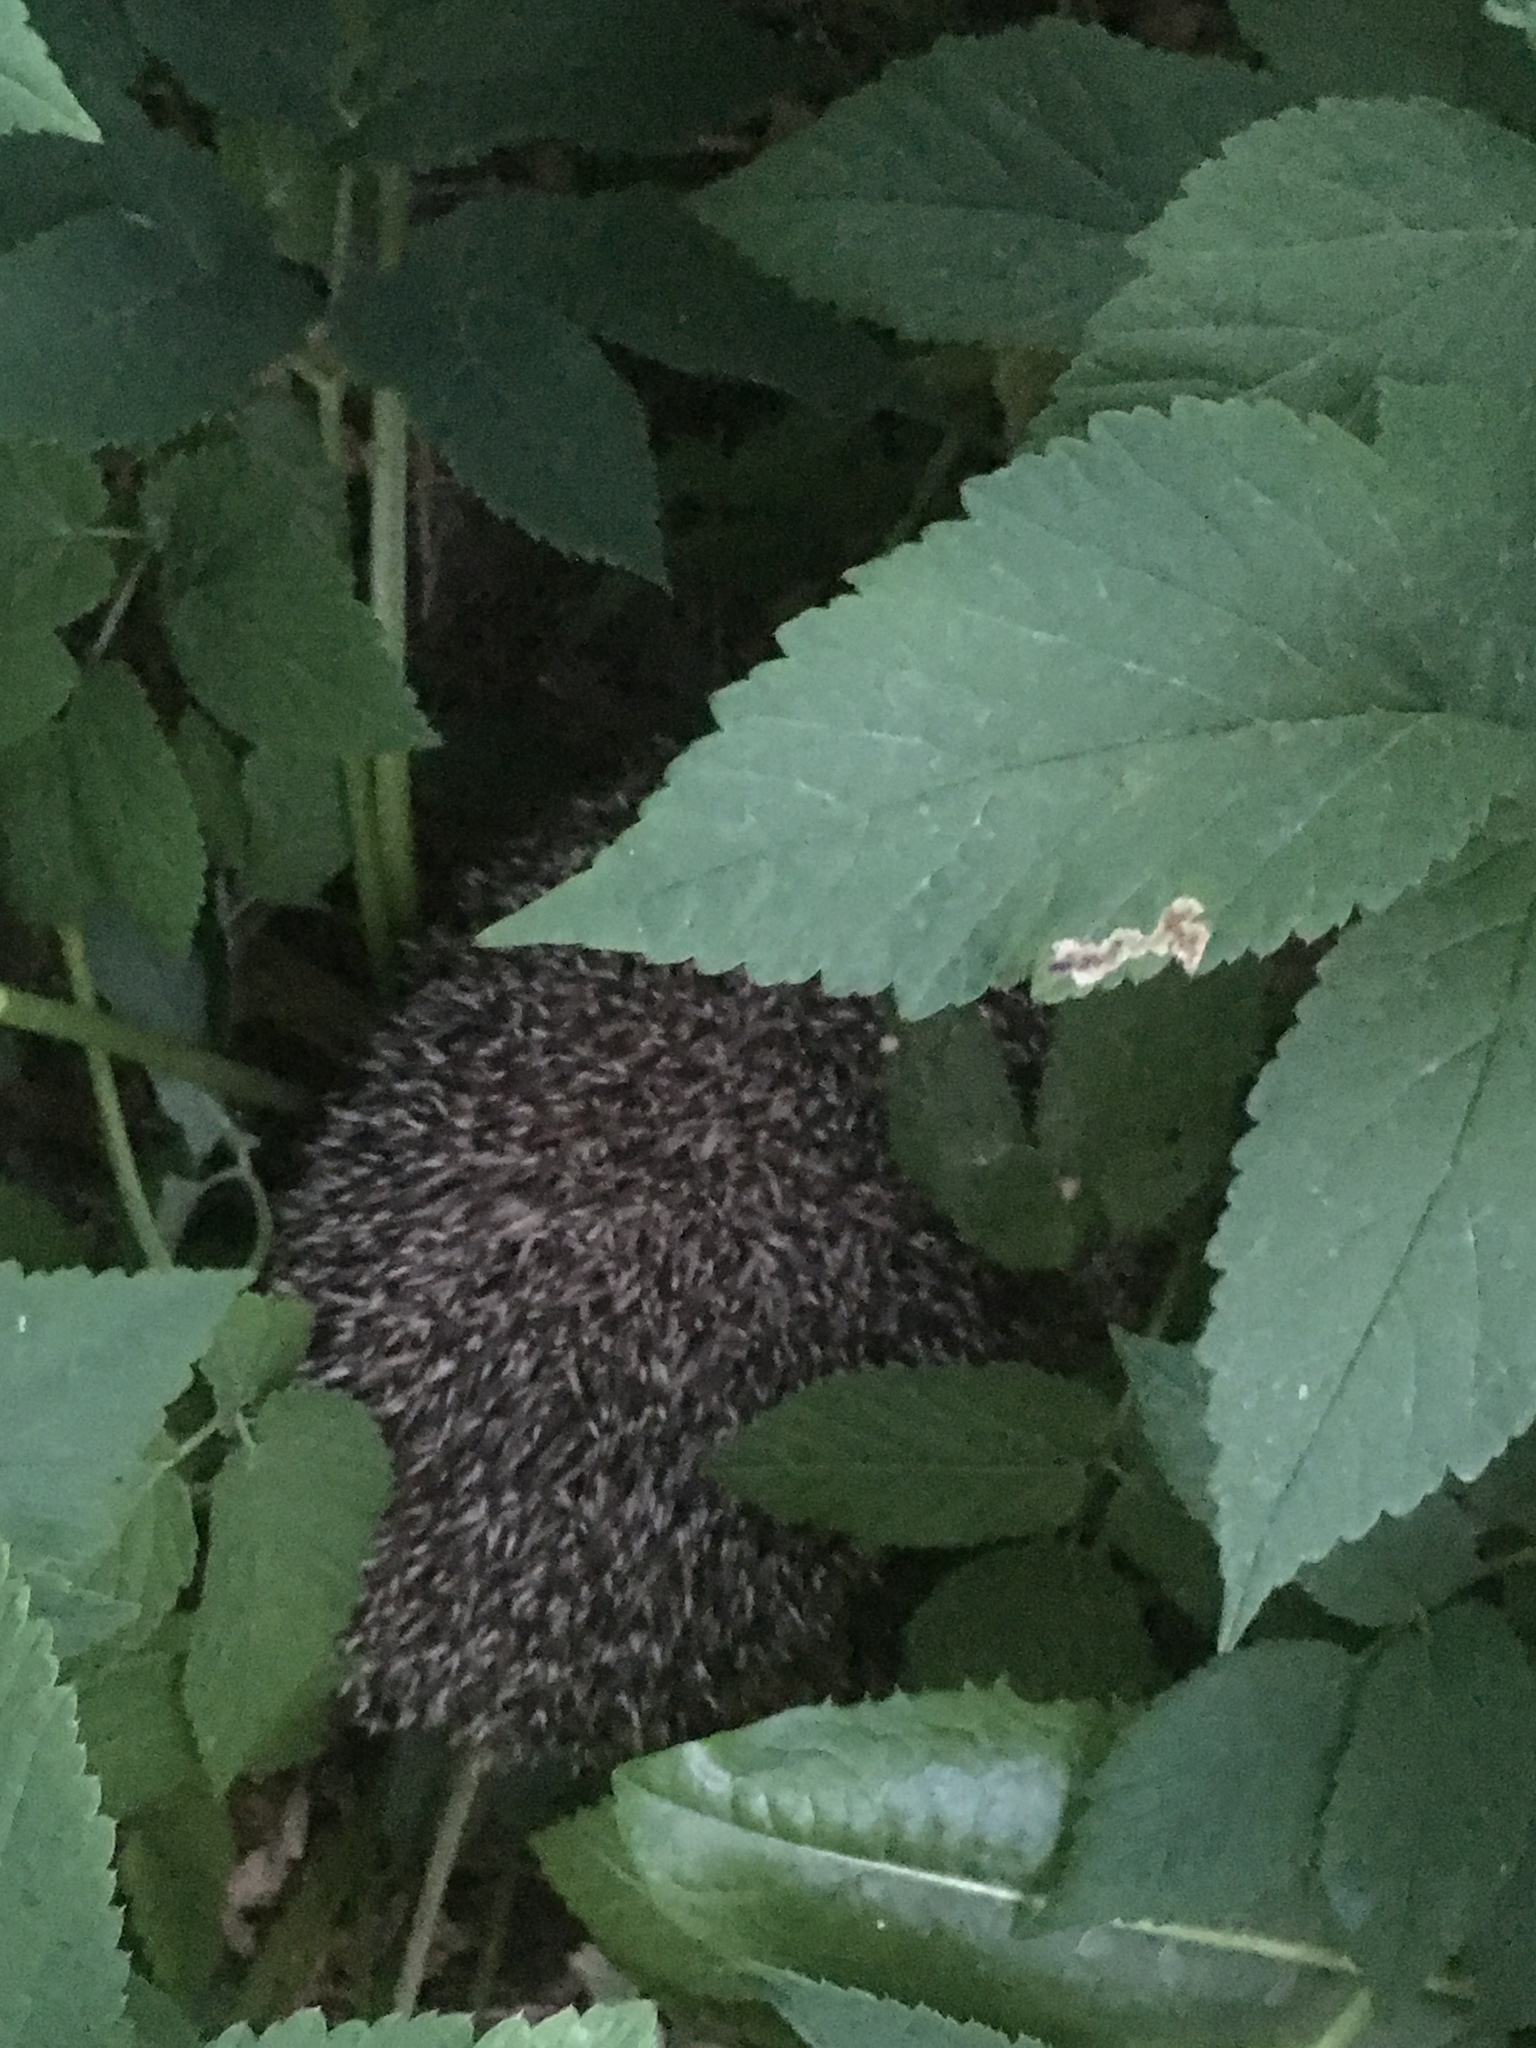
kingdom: Animalia
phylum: Chordata
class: Mammalia
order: Erinaceomorpha
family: Erinaceidae
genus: Erinaceus
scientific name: Erinaceus europaeus
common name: West european hedgehog
